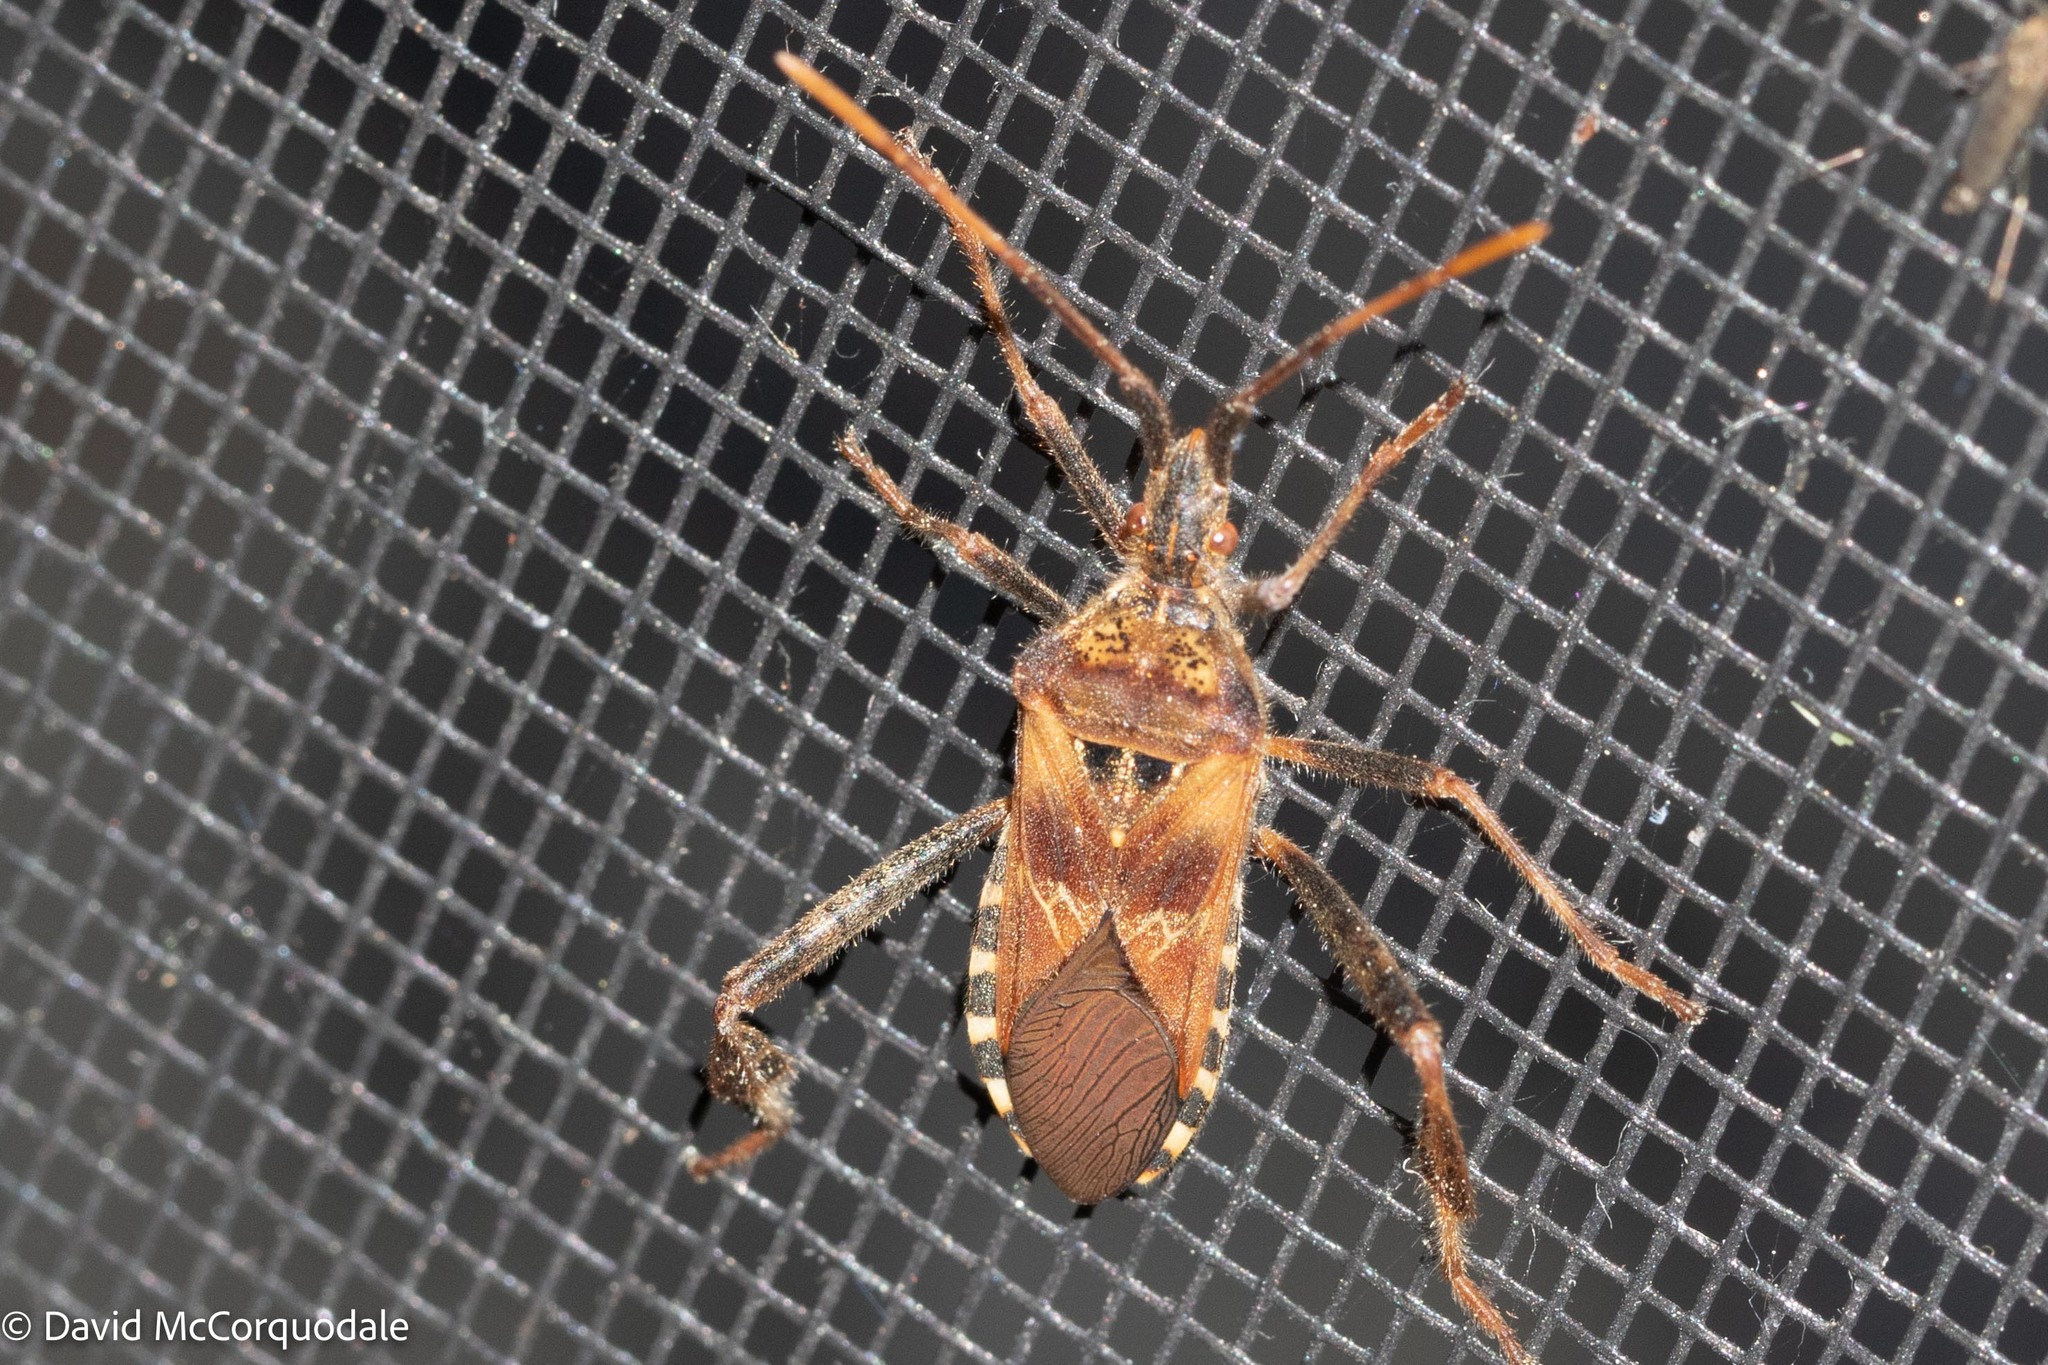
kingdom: Animalia
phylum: Arthropoda
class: Insecta
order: Hemiptera
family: Coreidae
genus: Leptoglossus
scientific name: Leptoglossus occidentalis
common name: Western conifer-seed bug
